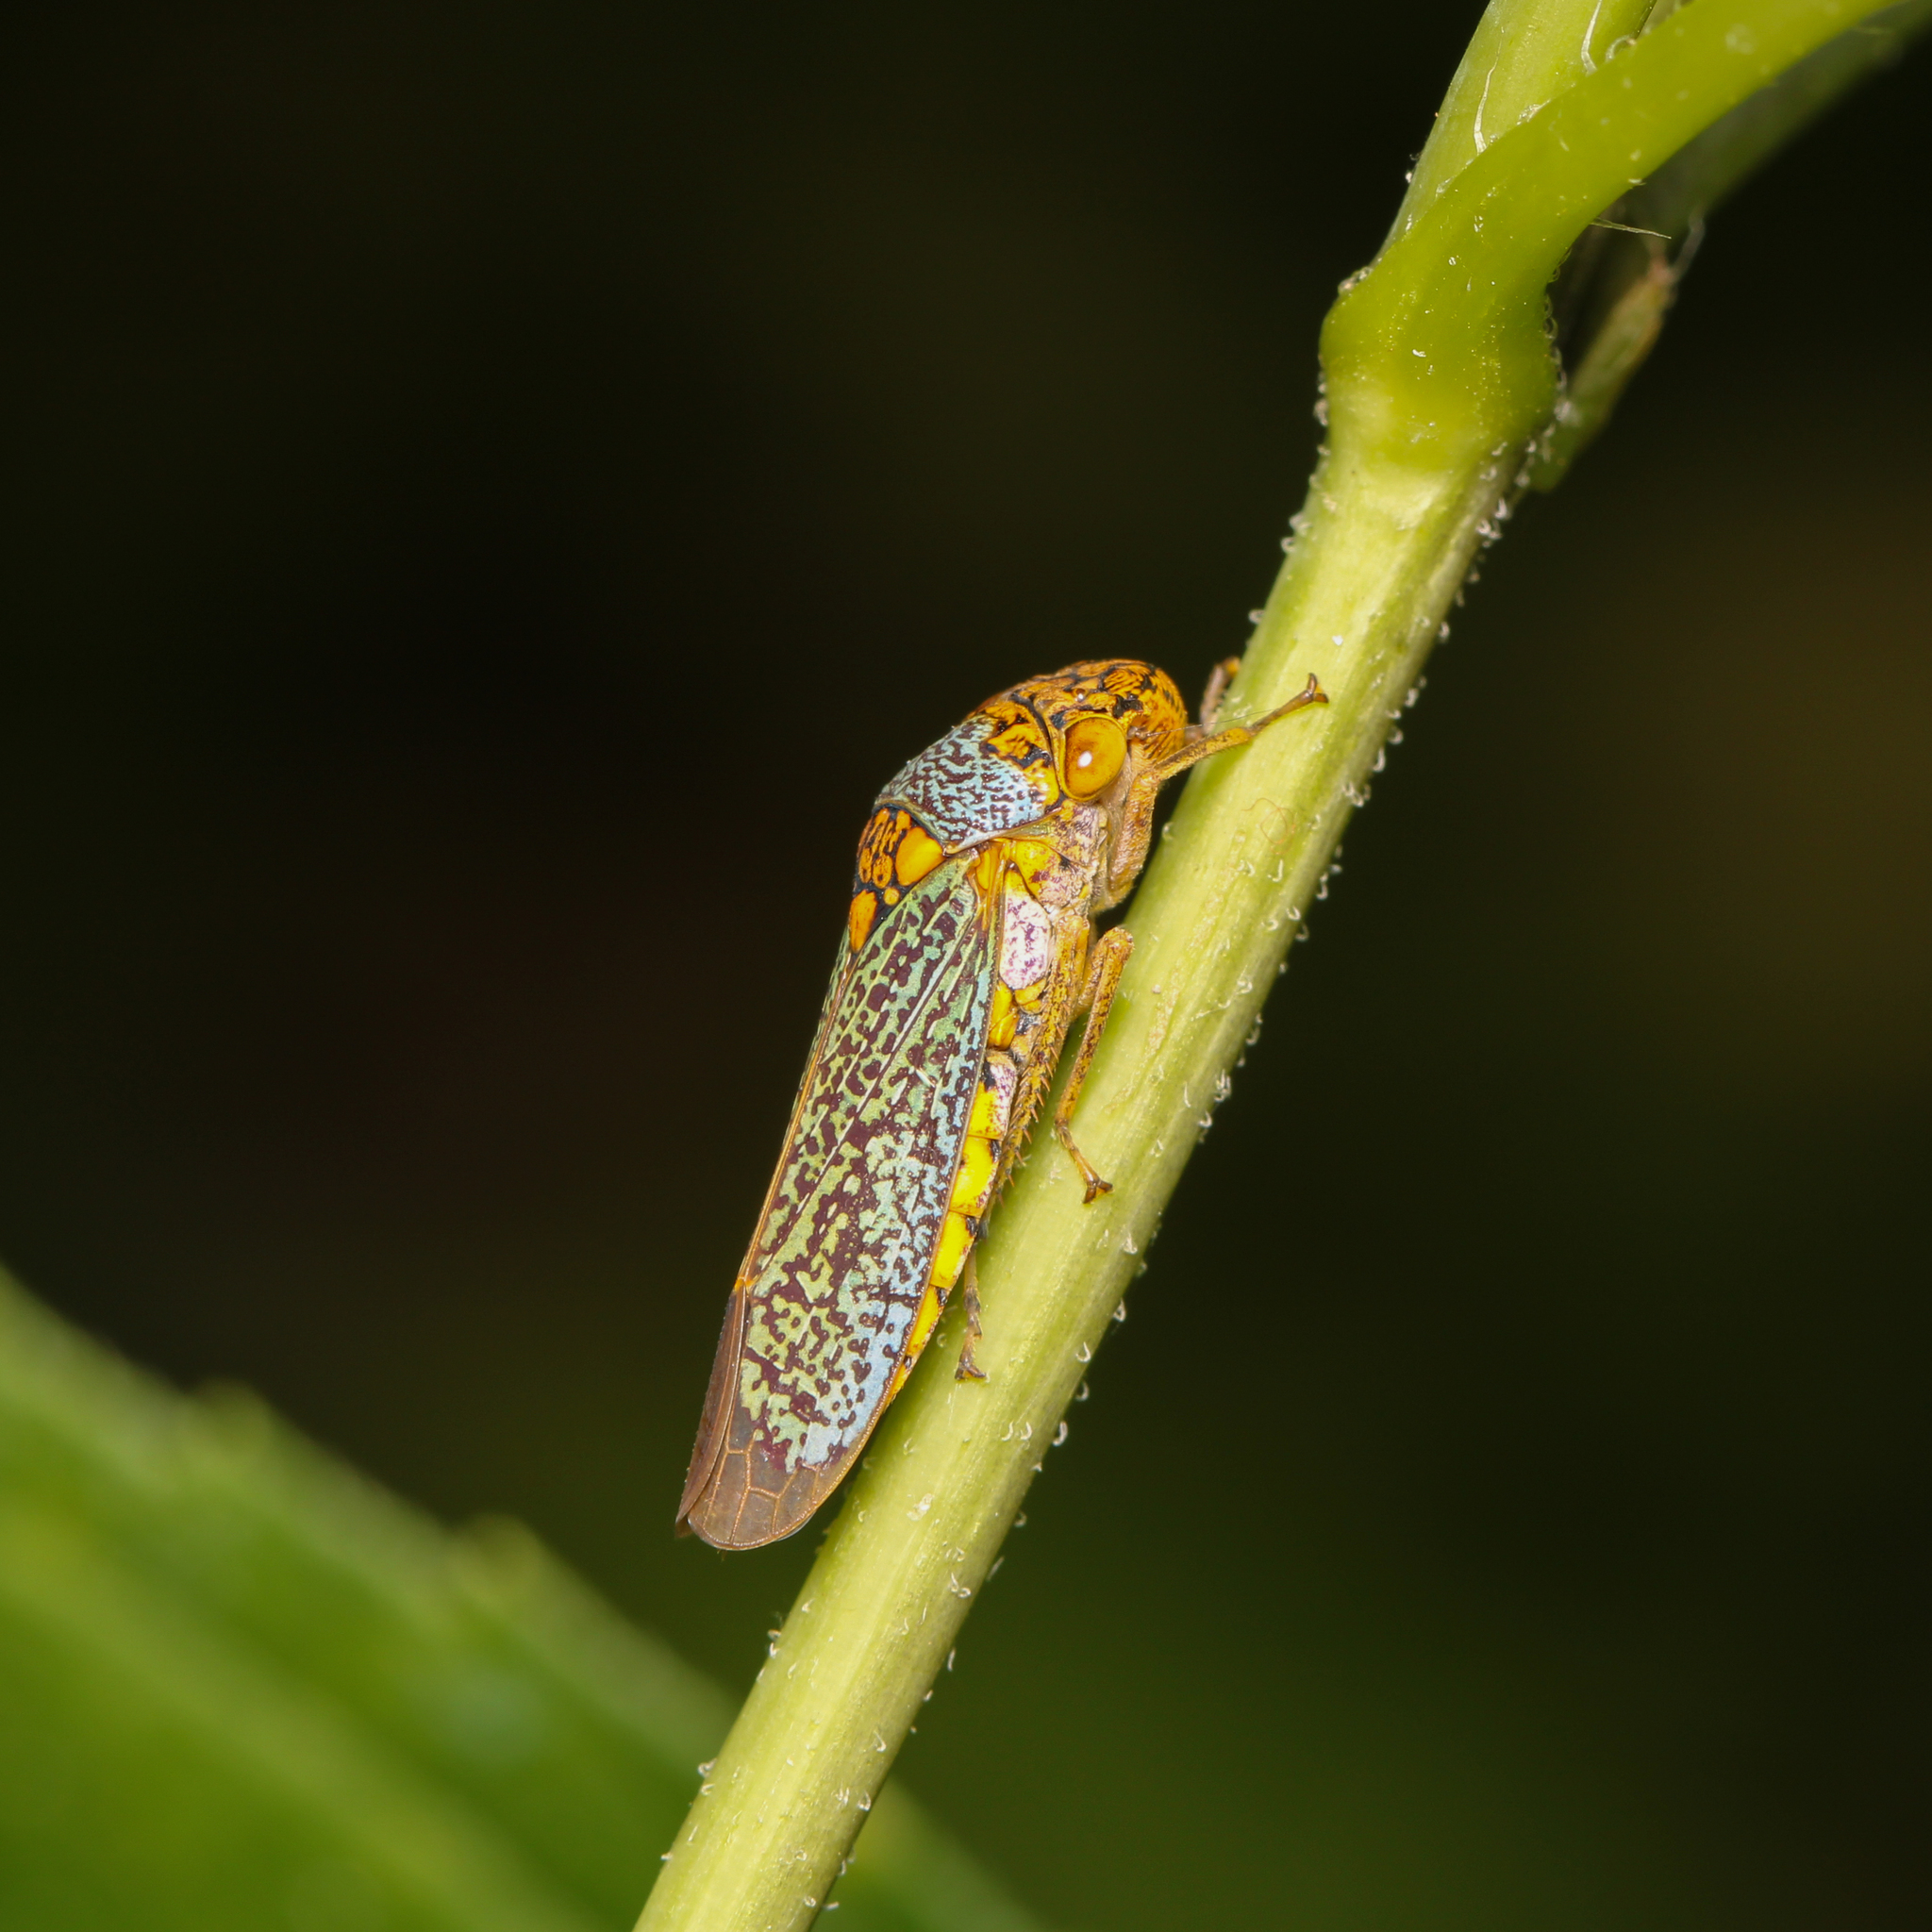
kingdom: Animalia
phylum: Arthropoda
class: Insecta
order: Hemiptera
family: Cicadellidae
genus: Oncometopia
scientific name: Oncometopia orbona
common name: Broad-headed sharpshooter
